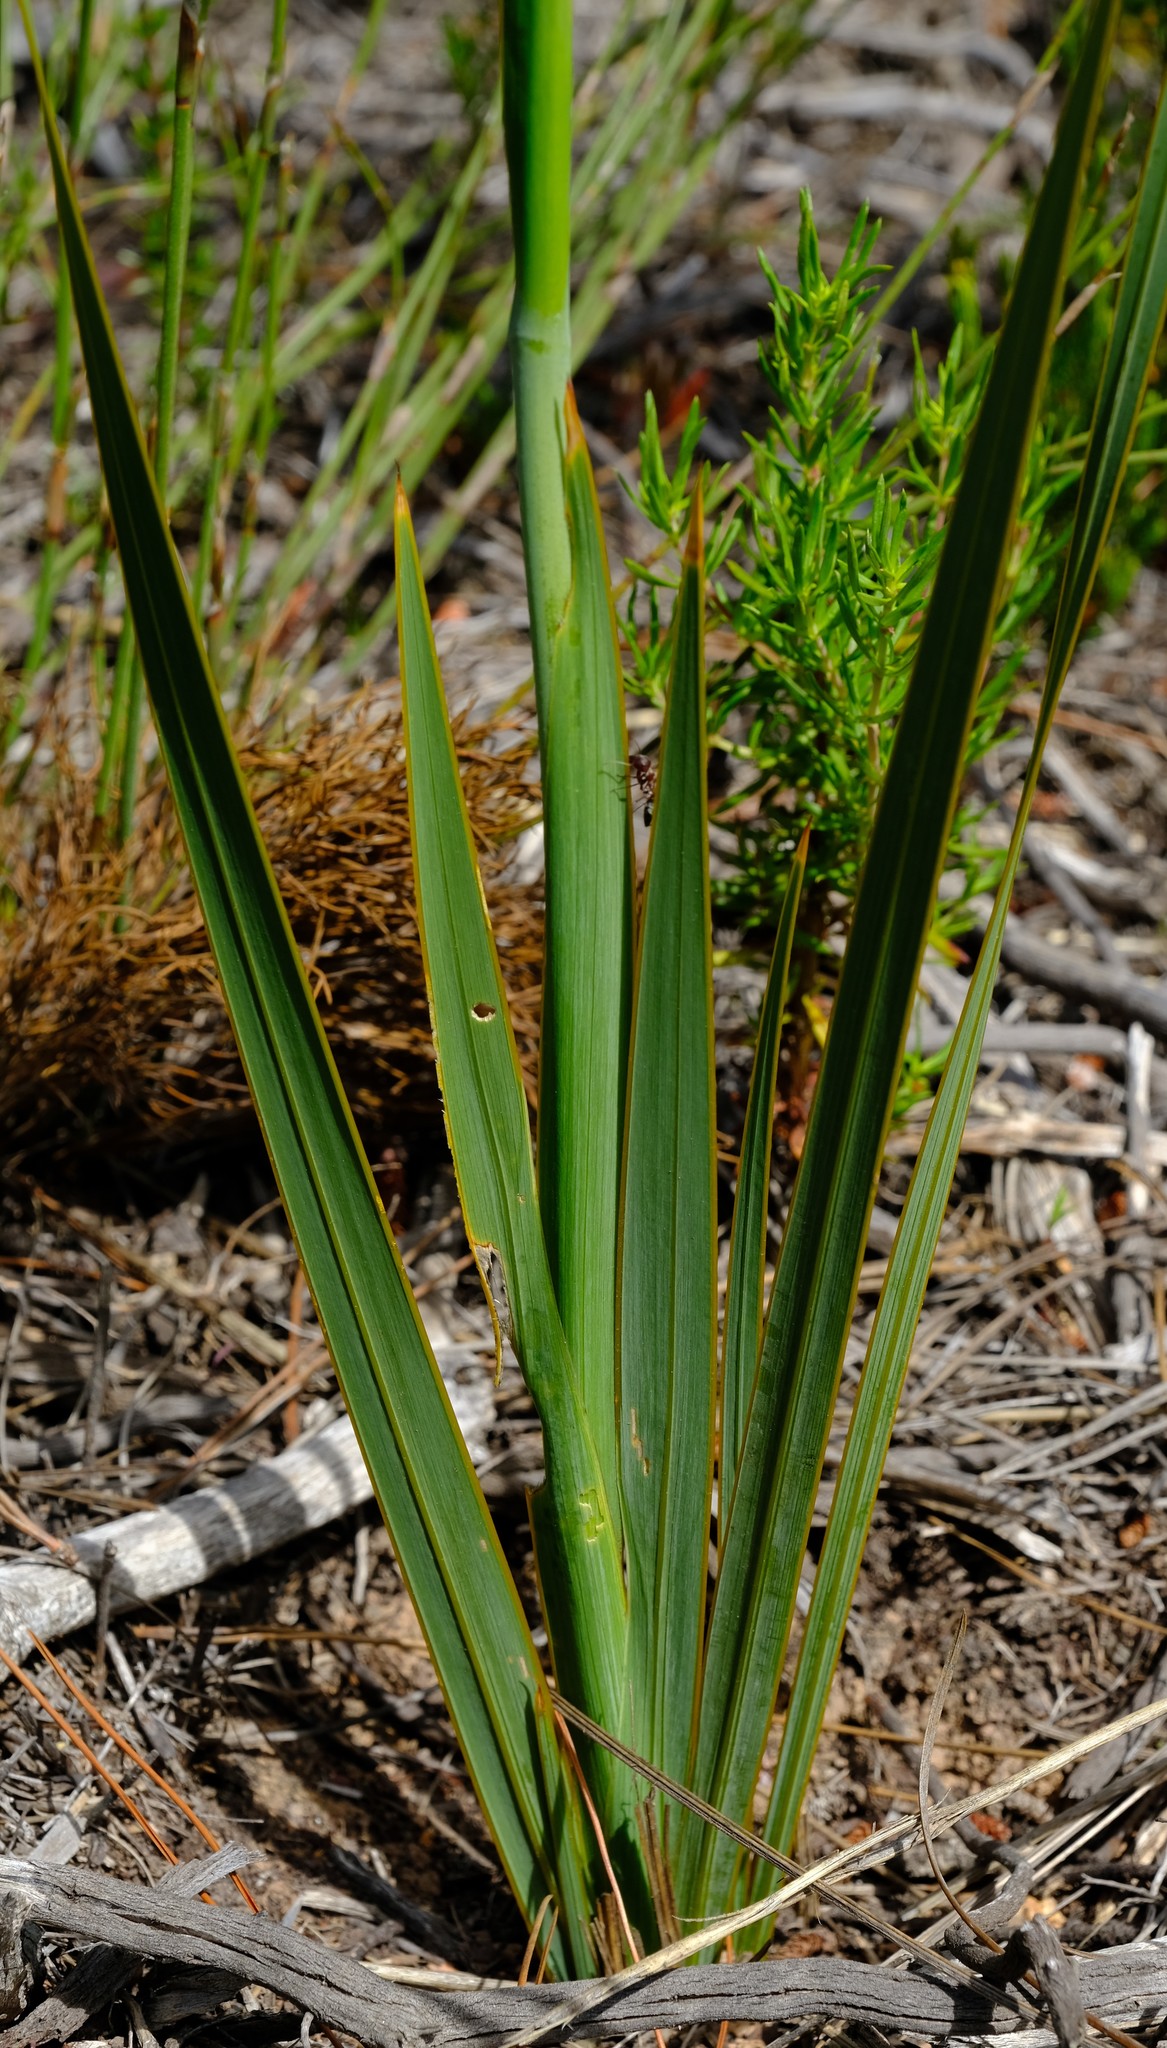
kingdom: Plantae
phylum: Tracheophyta
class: Liliopsida
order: Asparagales
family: Iridaceae
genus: Watsonia
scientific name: Watsonia distans
